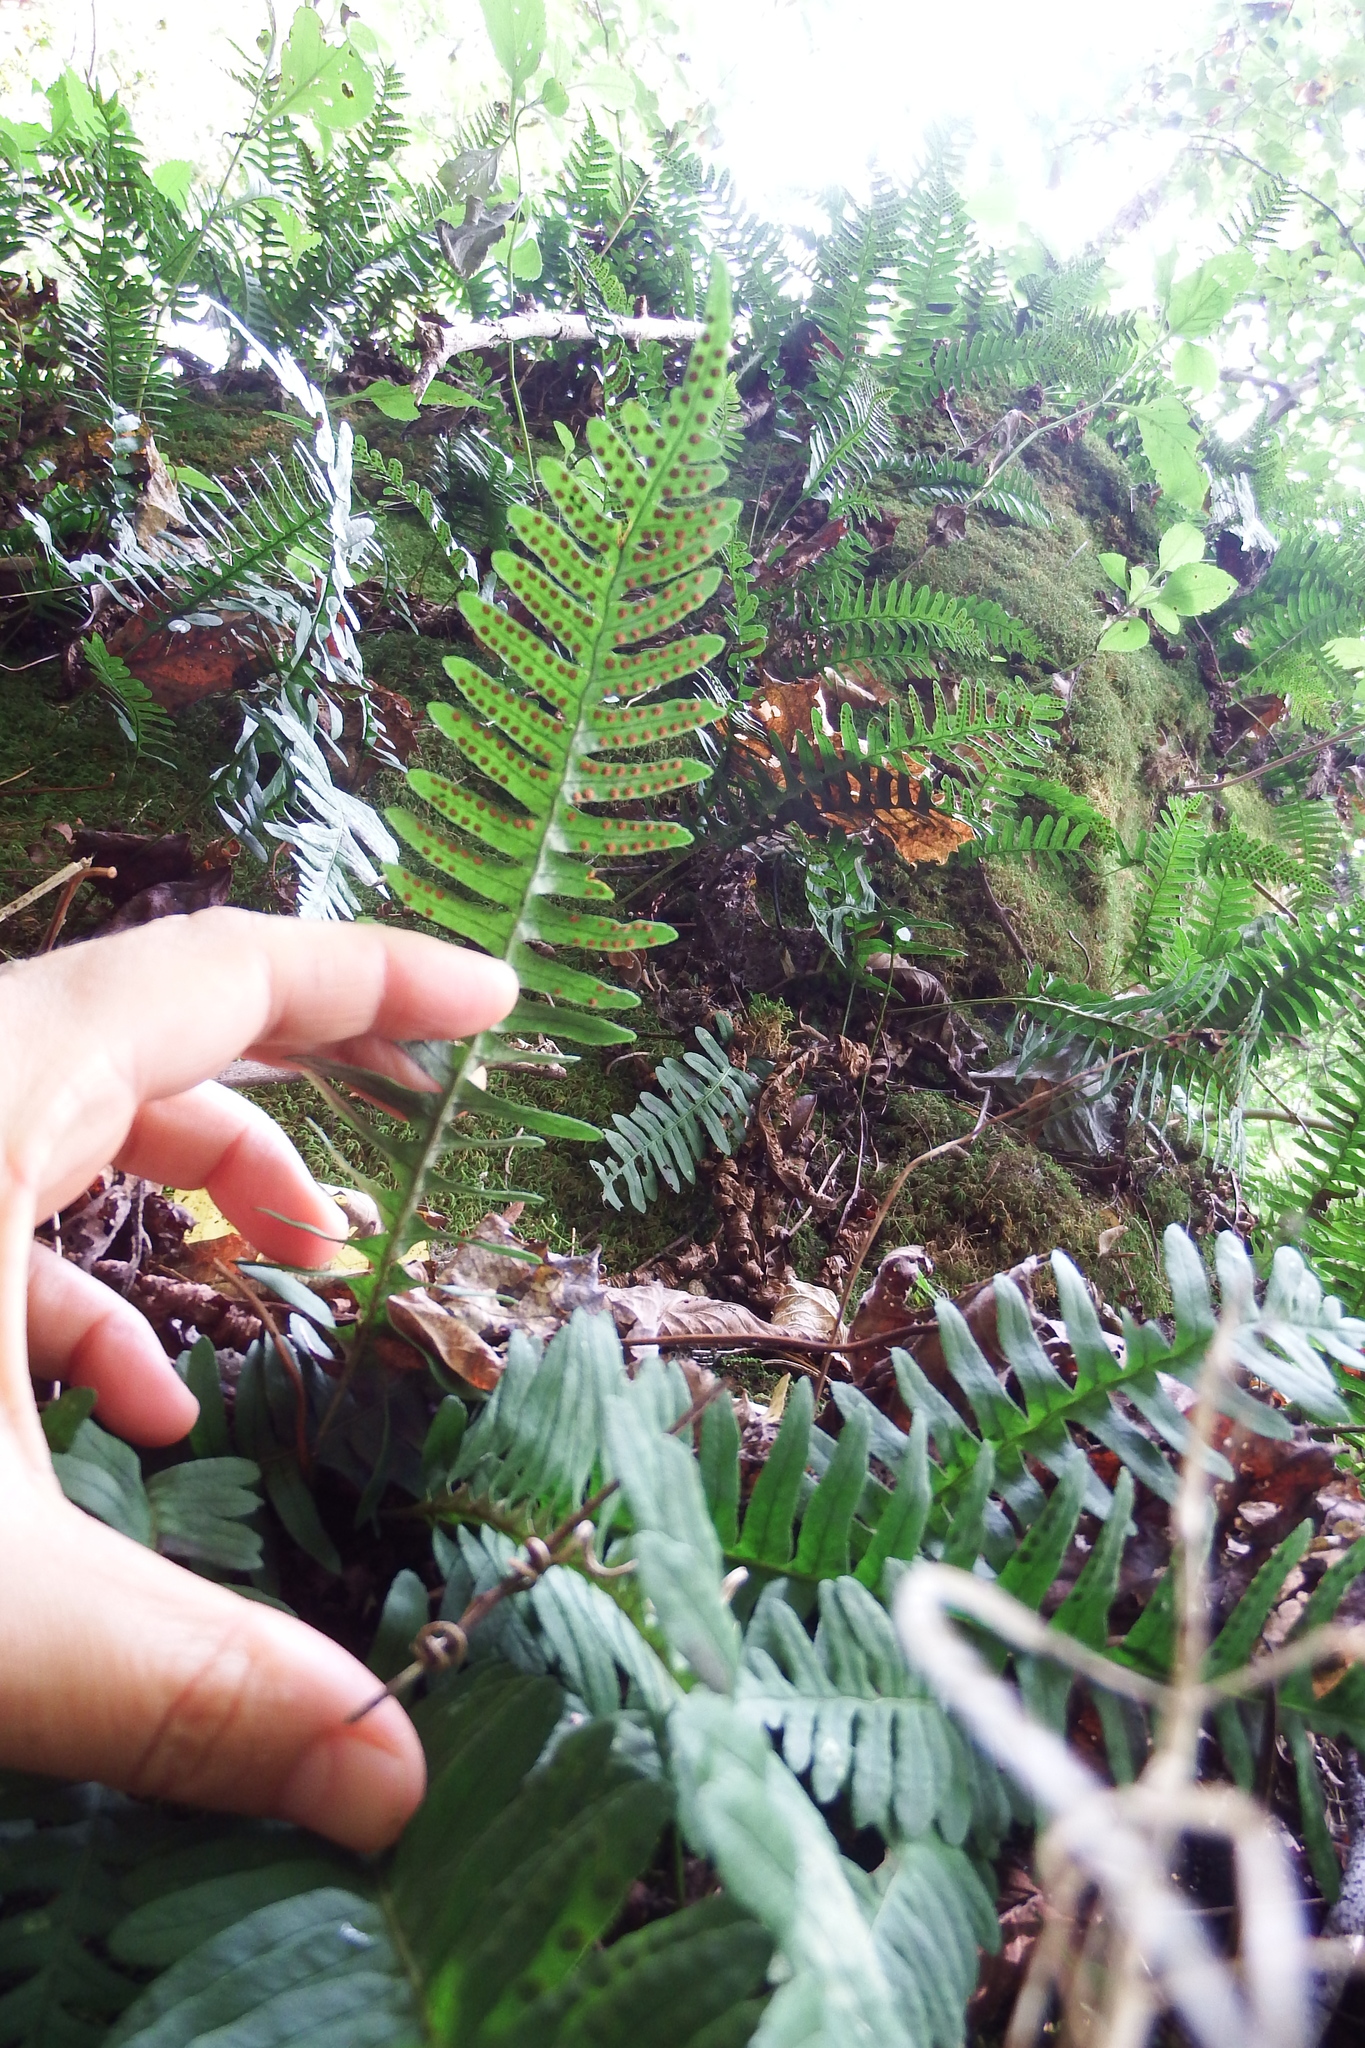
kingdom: Plantae
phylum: Tracheophyta
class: Polypodiopsida
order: Polypodiales
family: Polypodiaceae
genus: Polypodium
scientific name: Polypodium virginianum
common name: American wall fern
